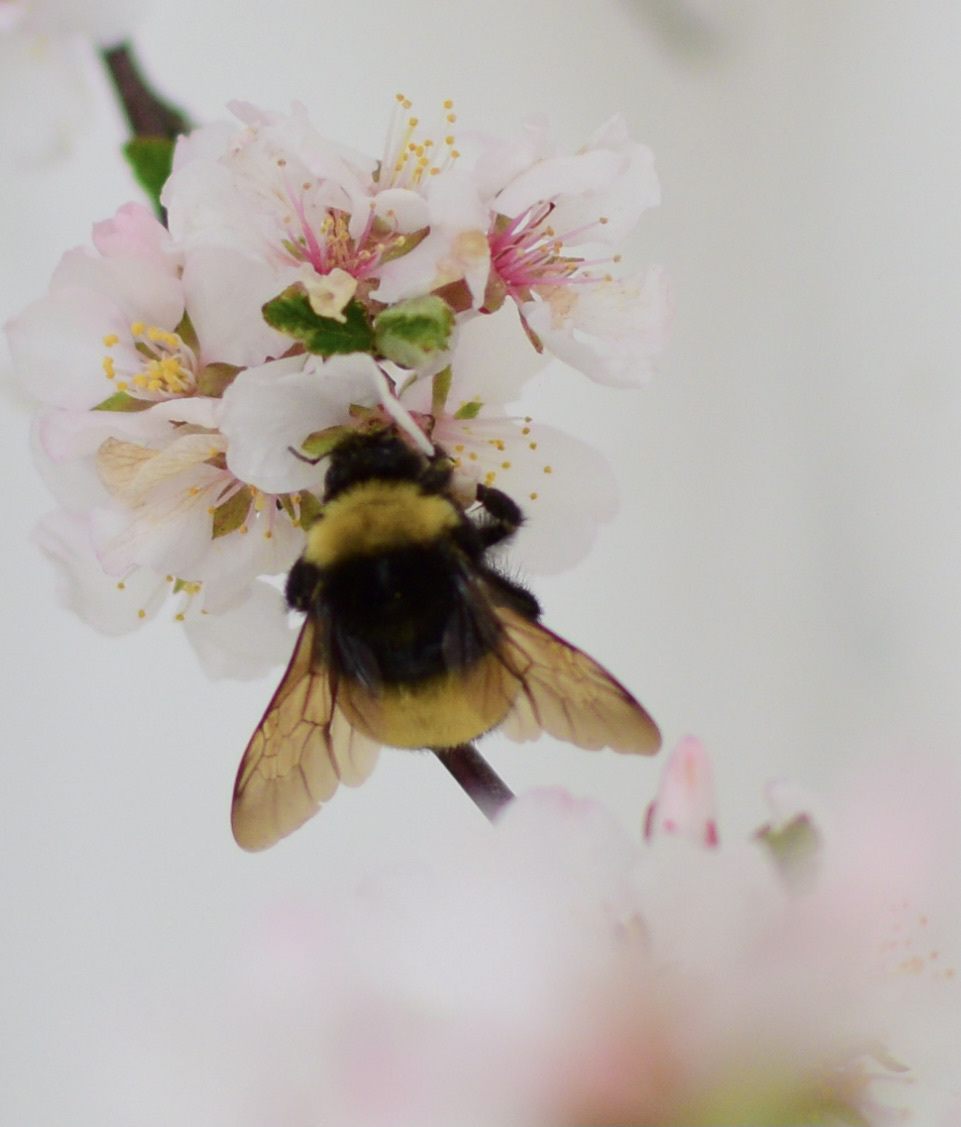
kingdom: Animalia
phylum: Arthropoda
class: Insecta
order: Hymenoptera
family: Apidae
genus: Bombus
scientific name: Bombus terricola
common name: Yellow-banded bumble bee
